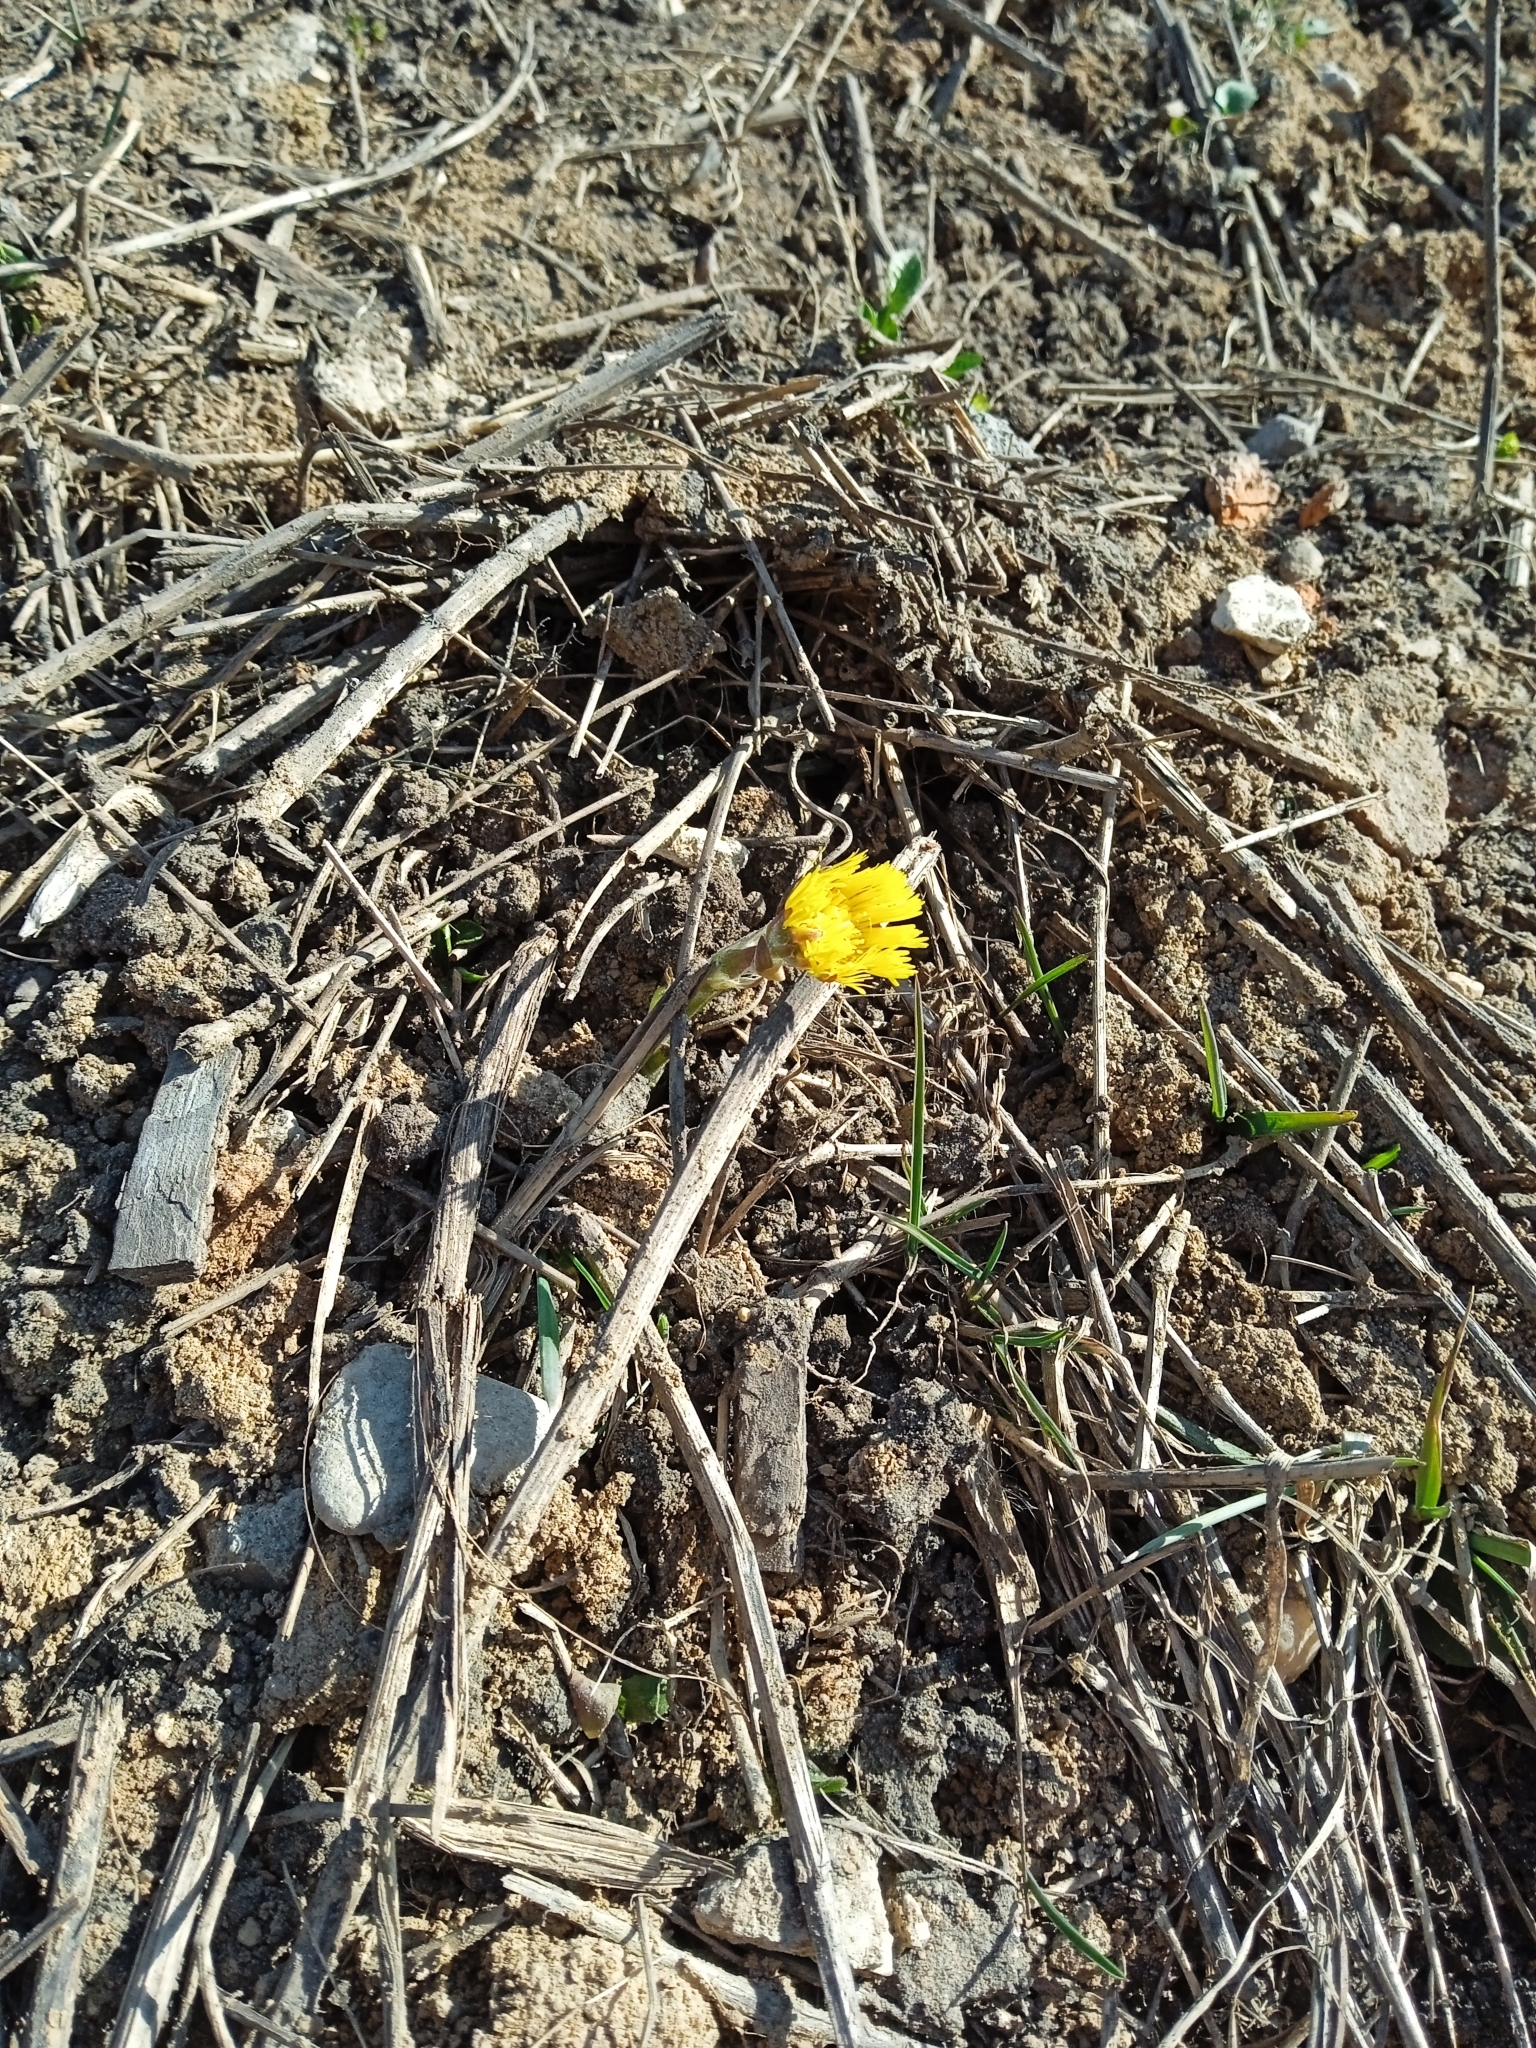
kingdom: Plantae
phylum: Tracheophyta
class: Magnoliopsida
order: Asterales
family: Asteraceae
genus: Tussilago
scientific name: Tussilago farfara
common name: Coltsfoot
